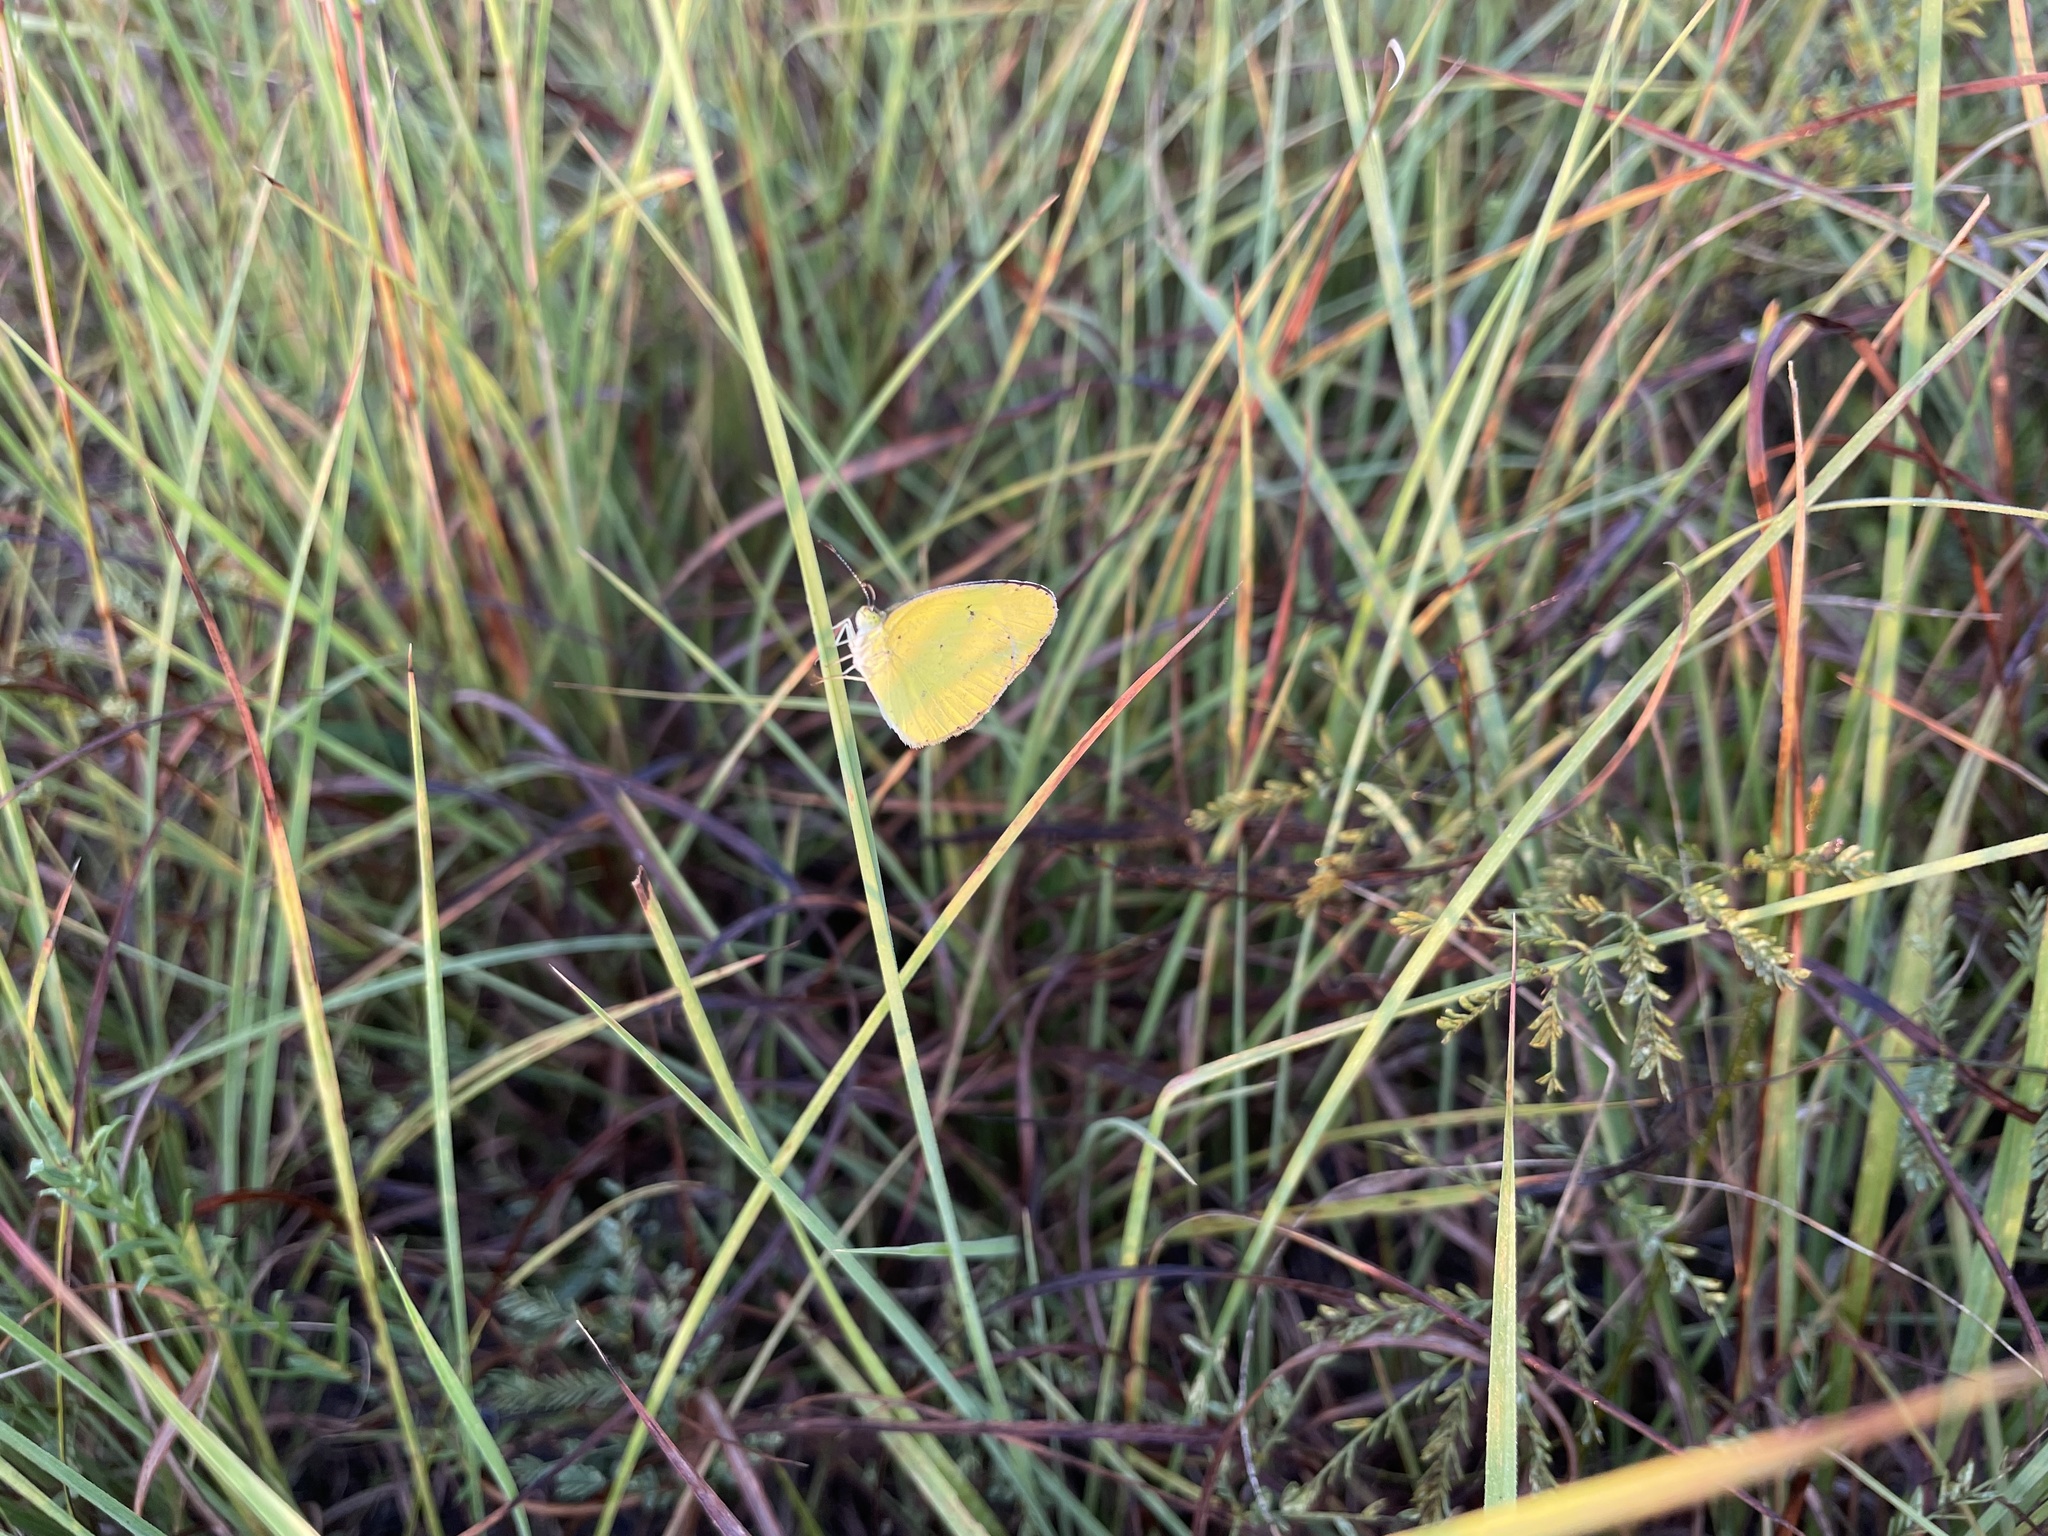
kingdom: Animalia
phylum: Arthropoda
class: Insecta
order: Lepidoptera
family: Pieridae
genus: Pyrisitia
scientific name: Pyrisitia lisa
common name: Little yellow
